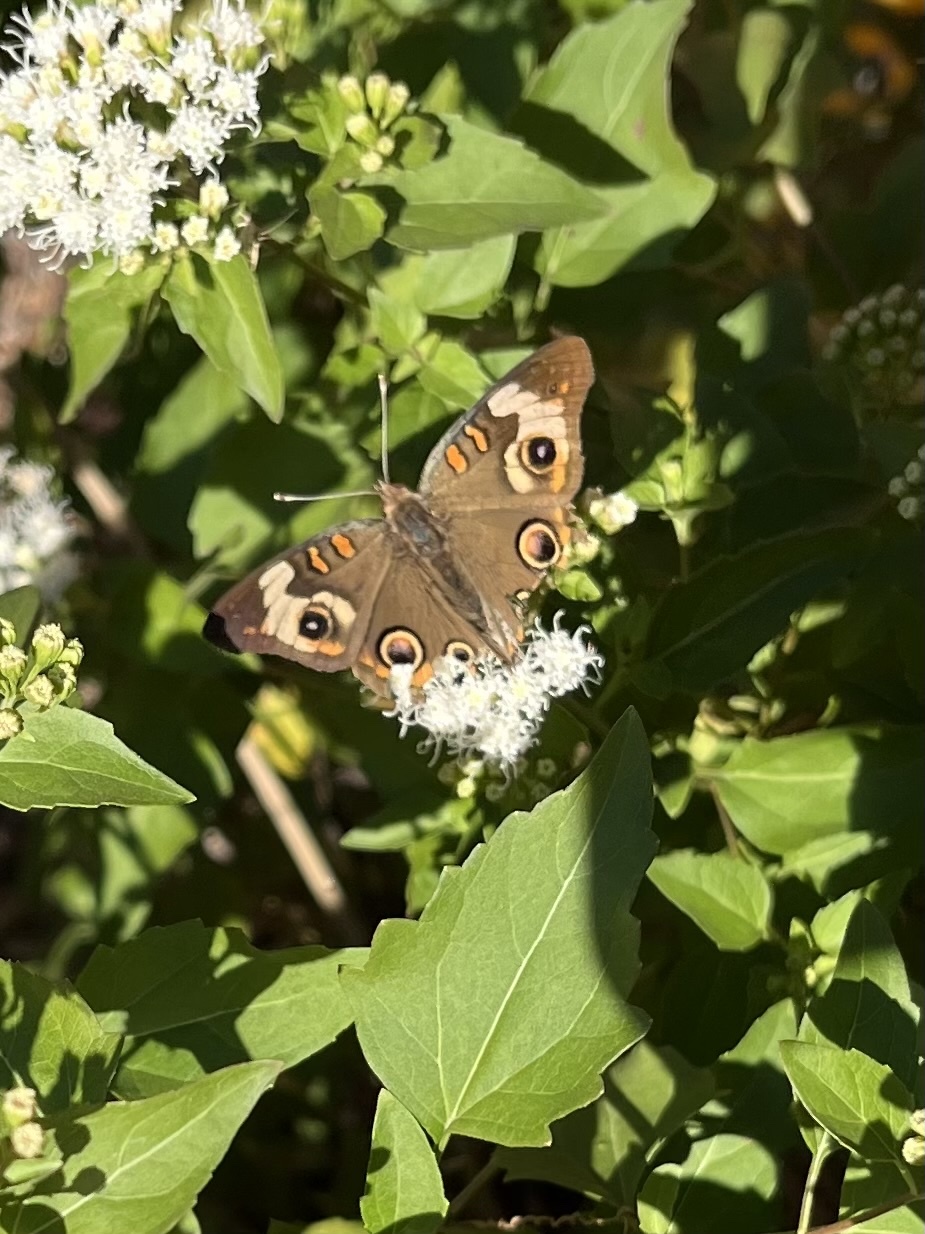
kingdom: Animalia
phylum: Arthropoda
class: Insecta
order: Lepidoptera
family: Nymphalidae
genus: Junonia
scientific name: Junonia coenia
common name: Common buckeye
